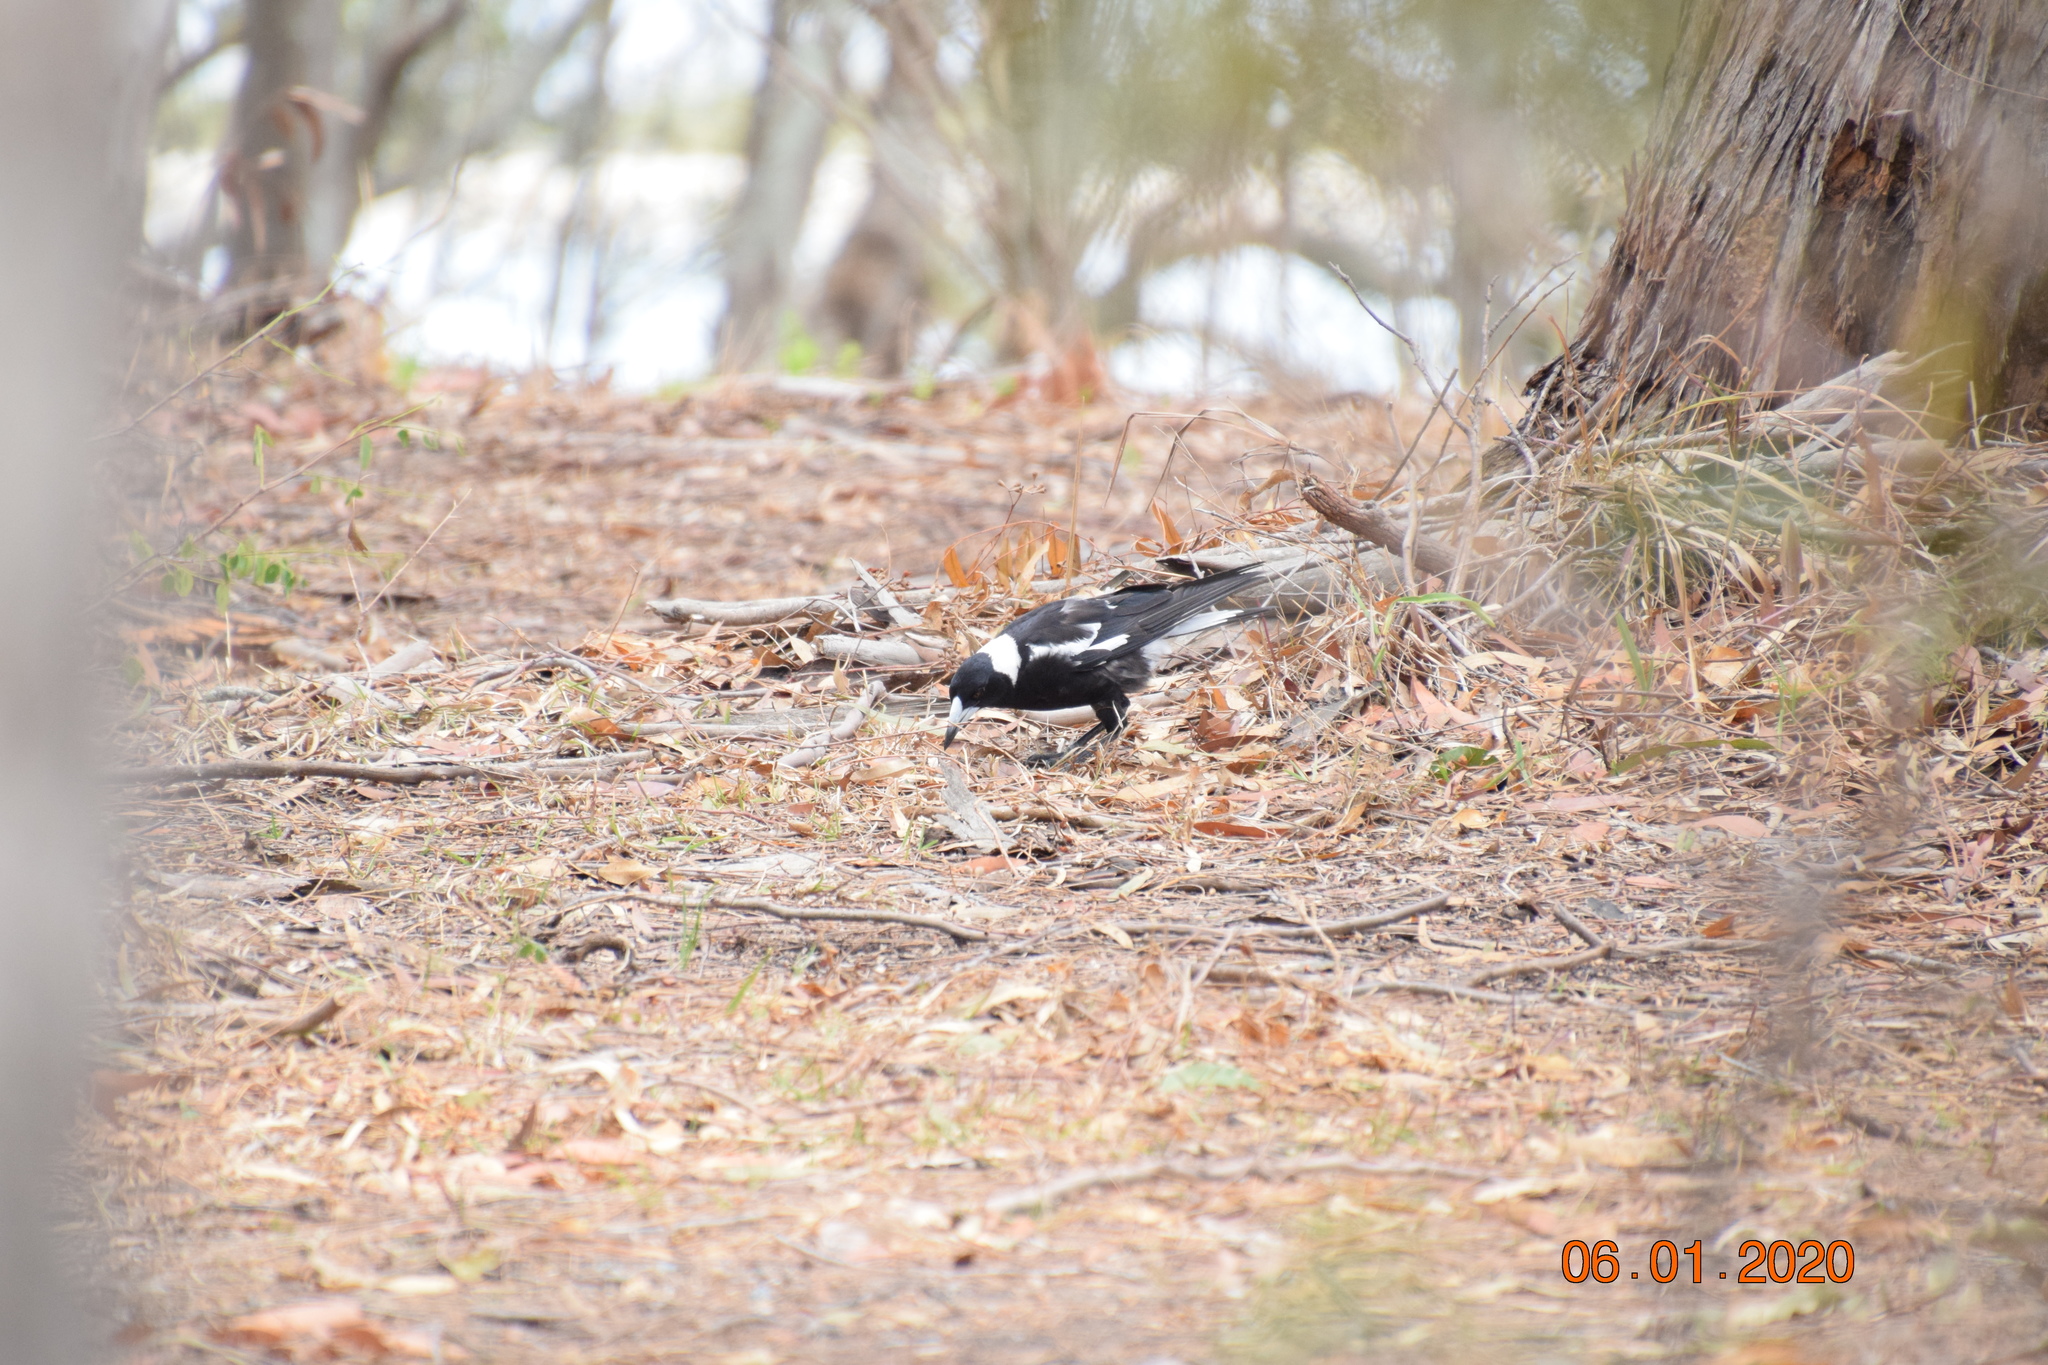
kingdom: Animalia
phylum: Chordata
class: Aves
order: Passeriformes
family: Cracticidae
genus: Gymnorhina
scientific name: Gymnorhina tibicen
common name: Australian magpie
